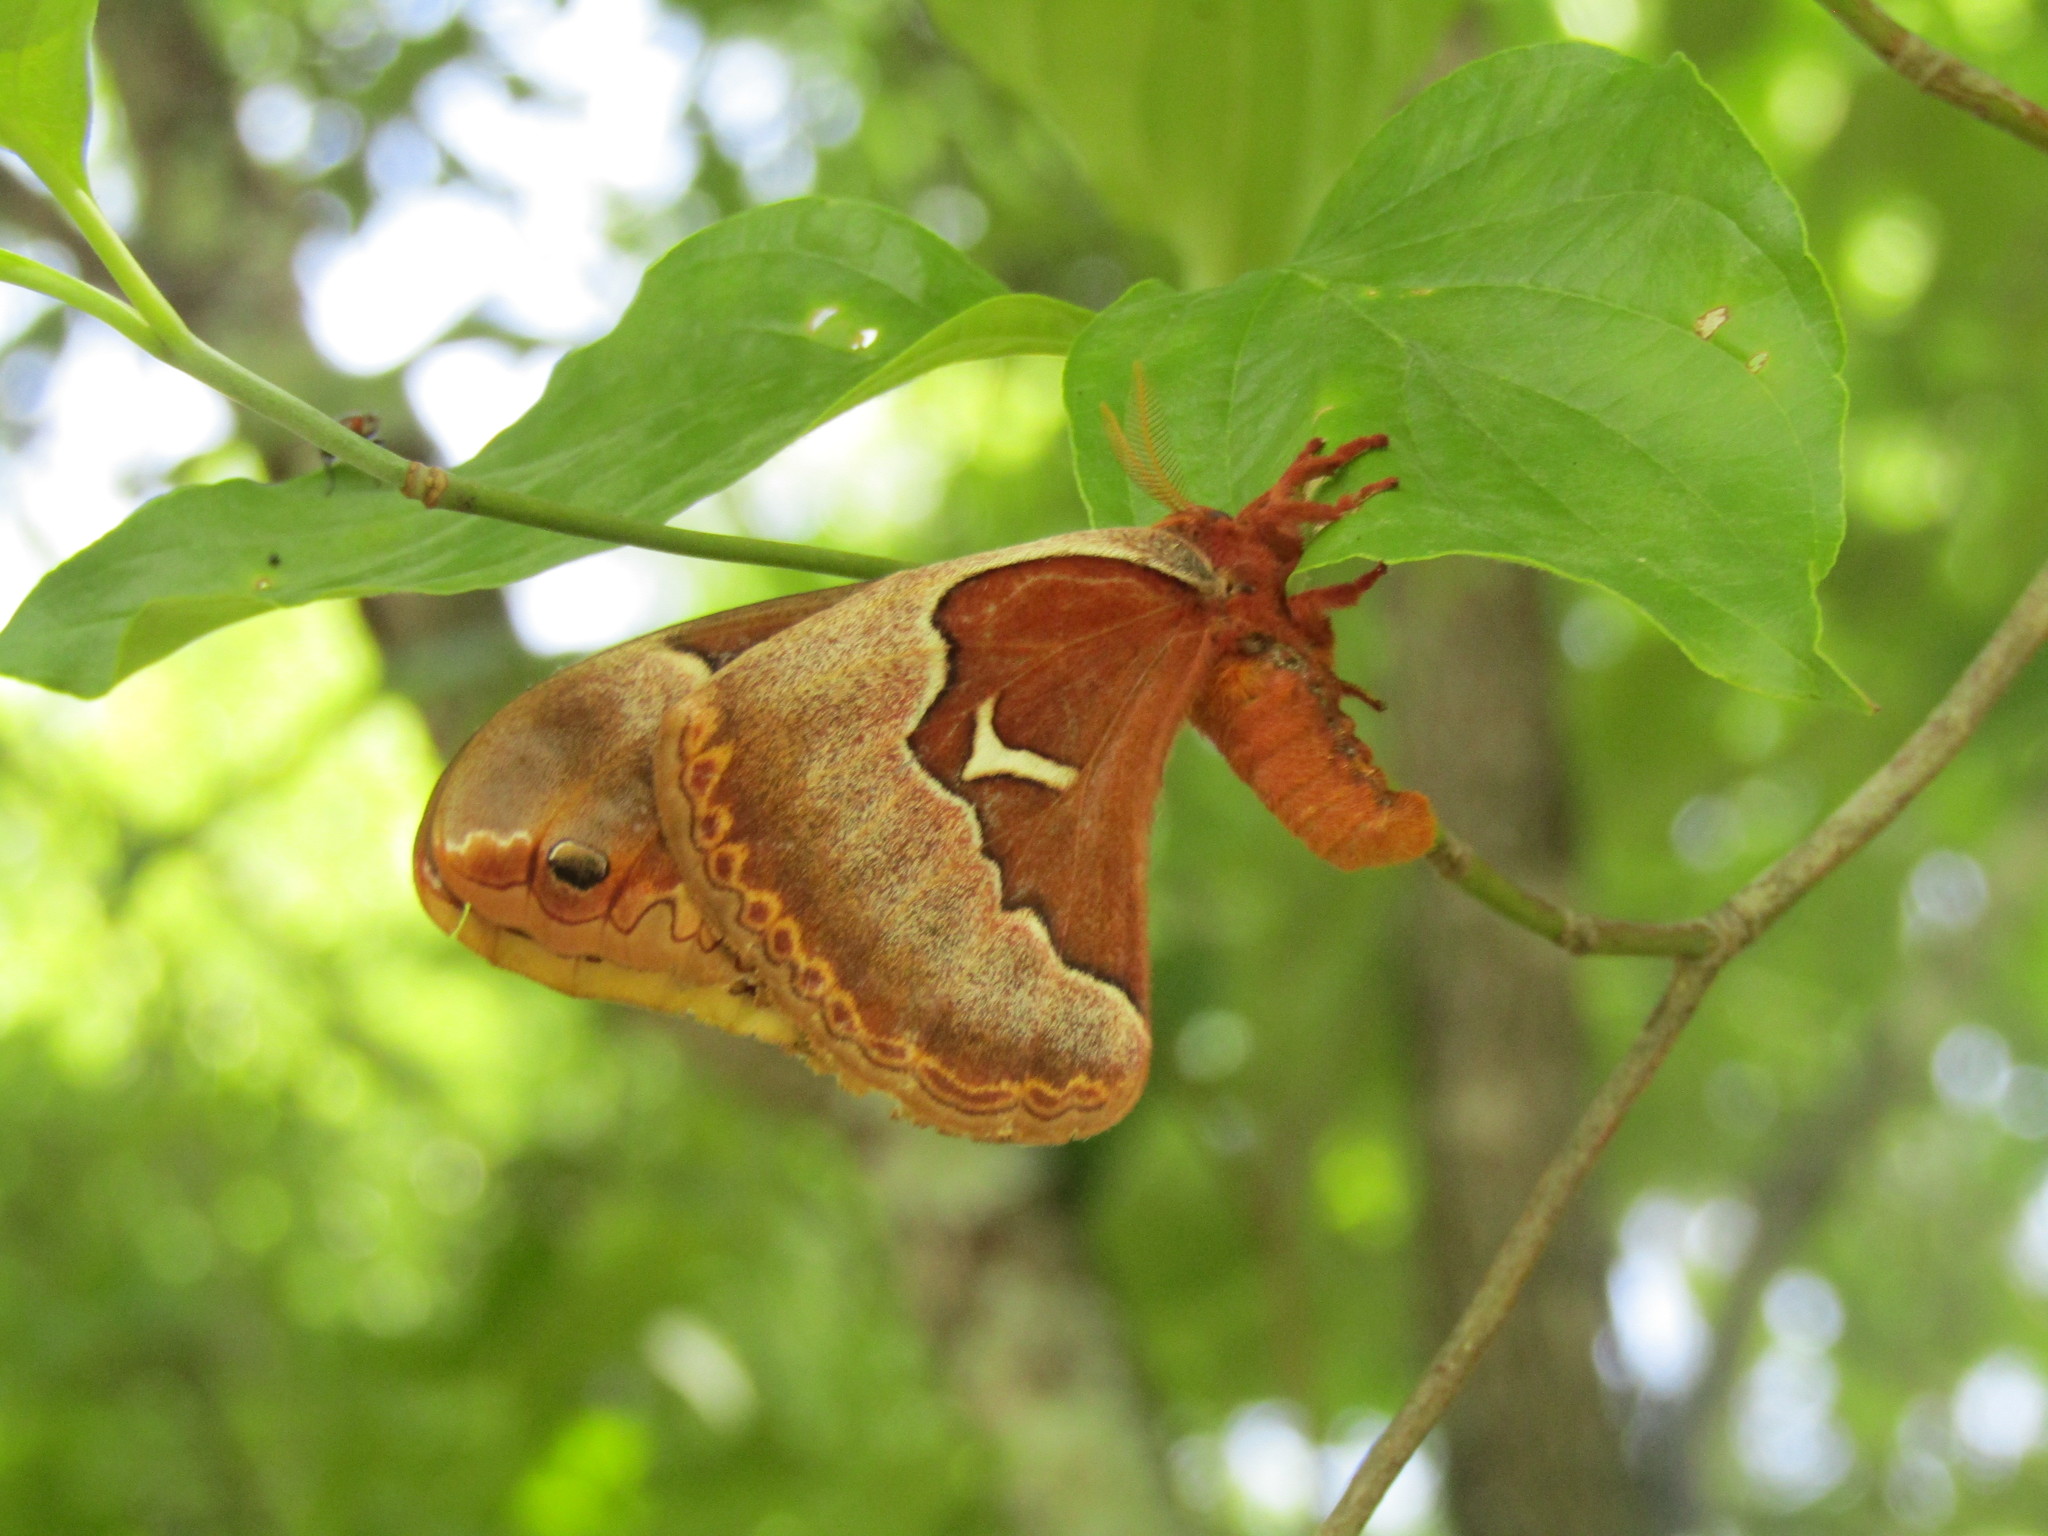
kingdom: Animalia
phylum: Arthropoda
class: Insecta
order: Lepidoptera
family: Saturniidae
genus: Callosamia
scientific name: Callosamia angulifera
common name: Tulip tree silkmoth
